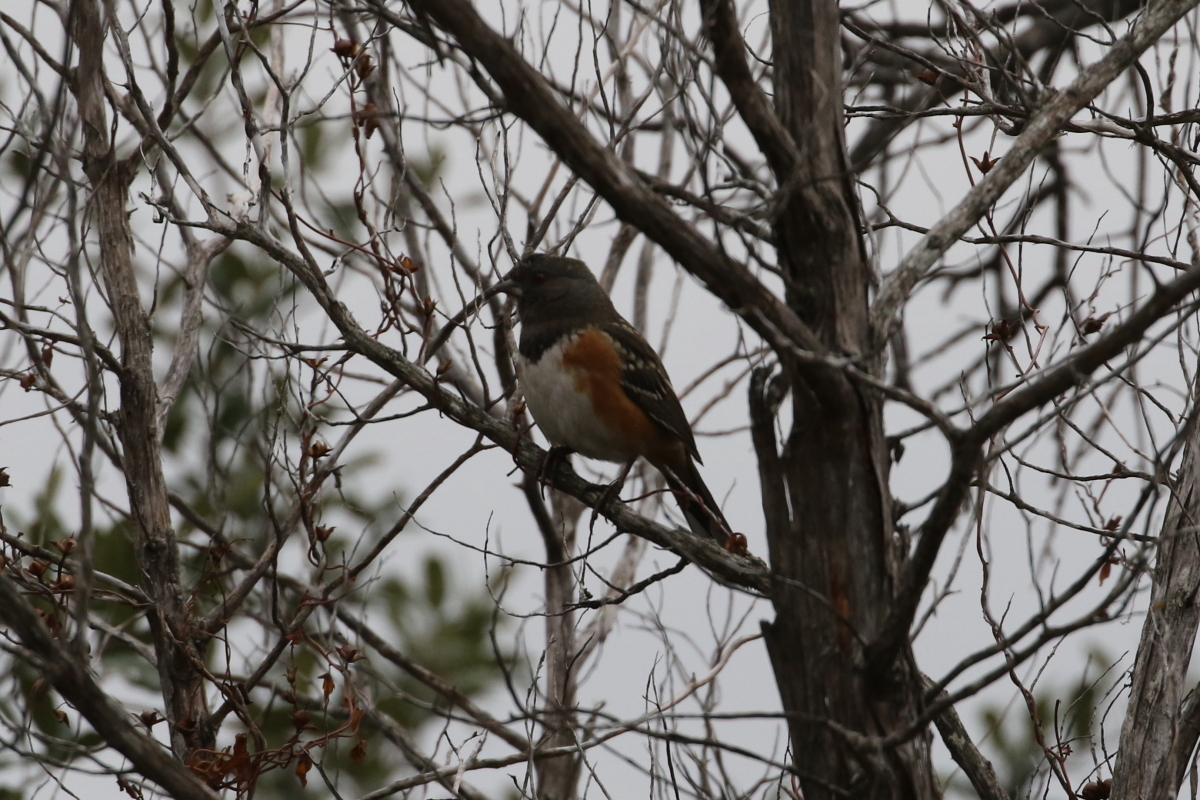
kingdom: Animalia
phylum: Chordata
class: Aves
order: Passeriformes
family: Passerellidae
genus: Pipilo
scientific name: Pipilo maculatus
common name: Spotted towhee
